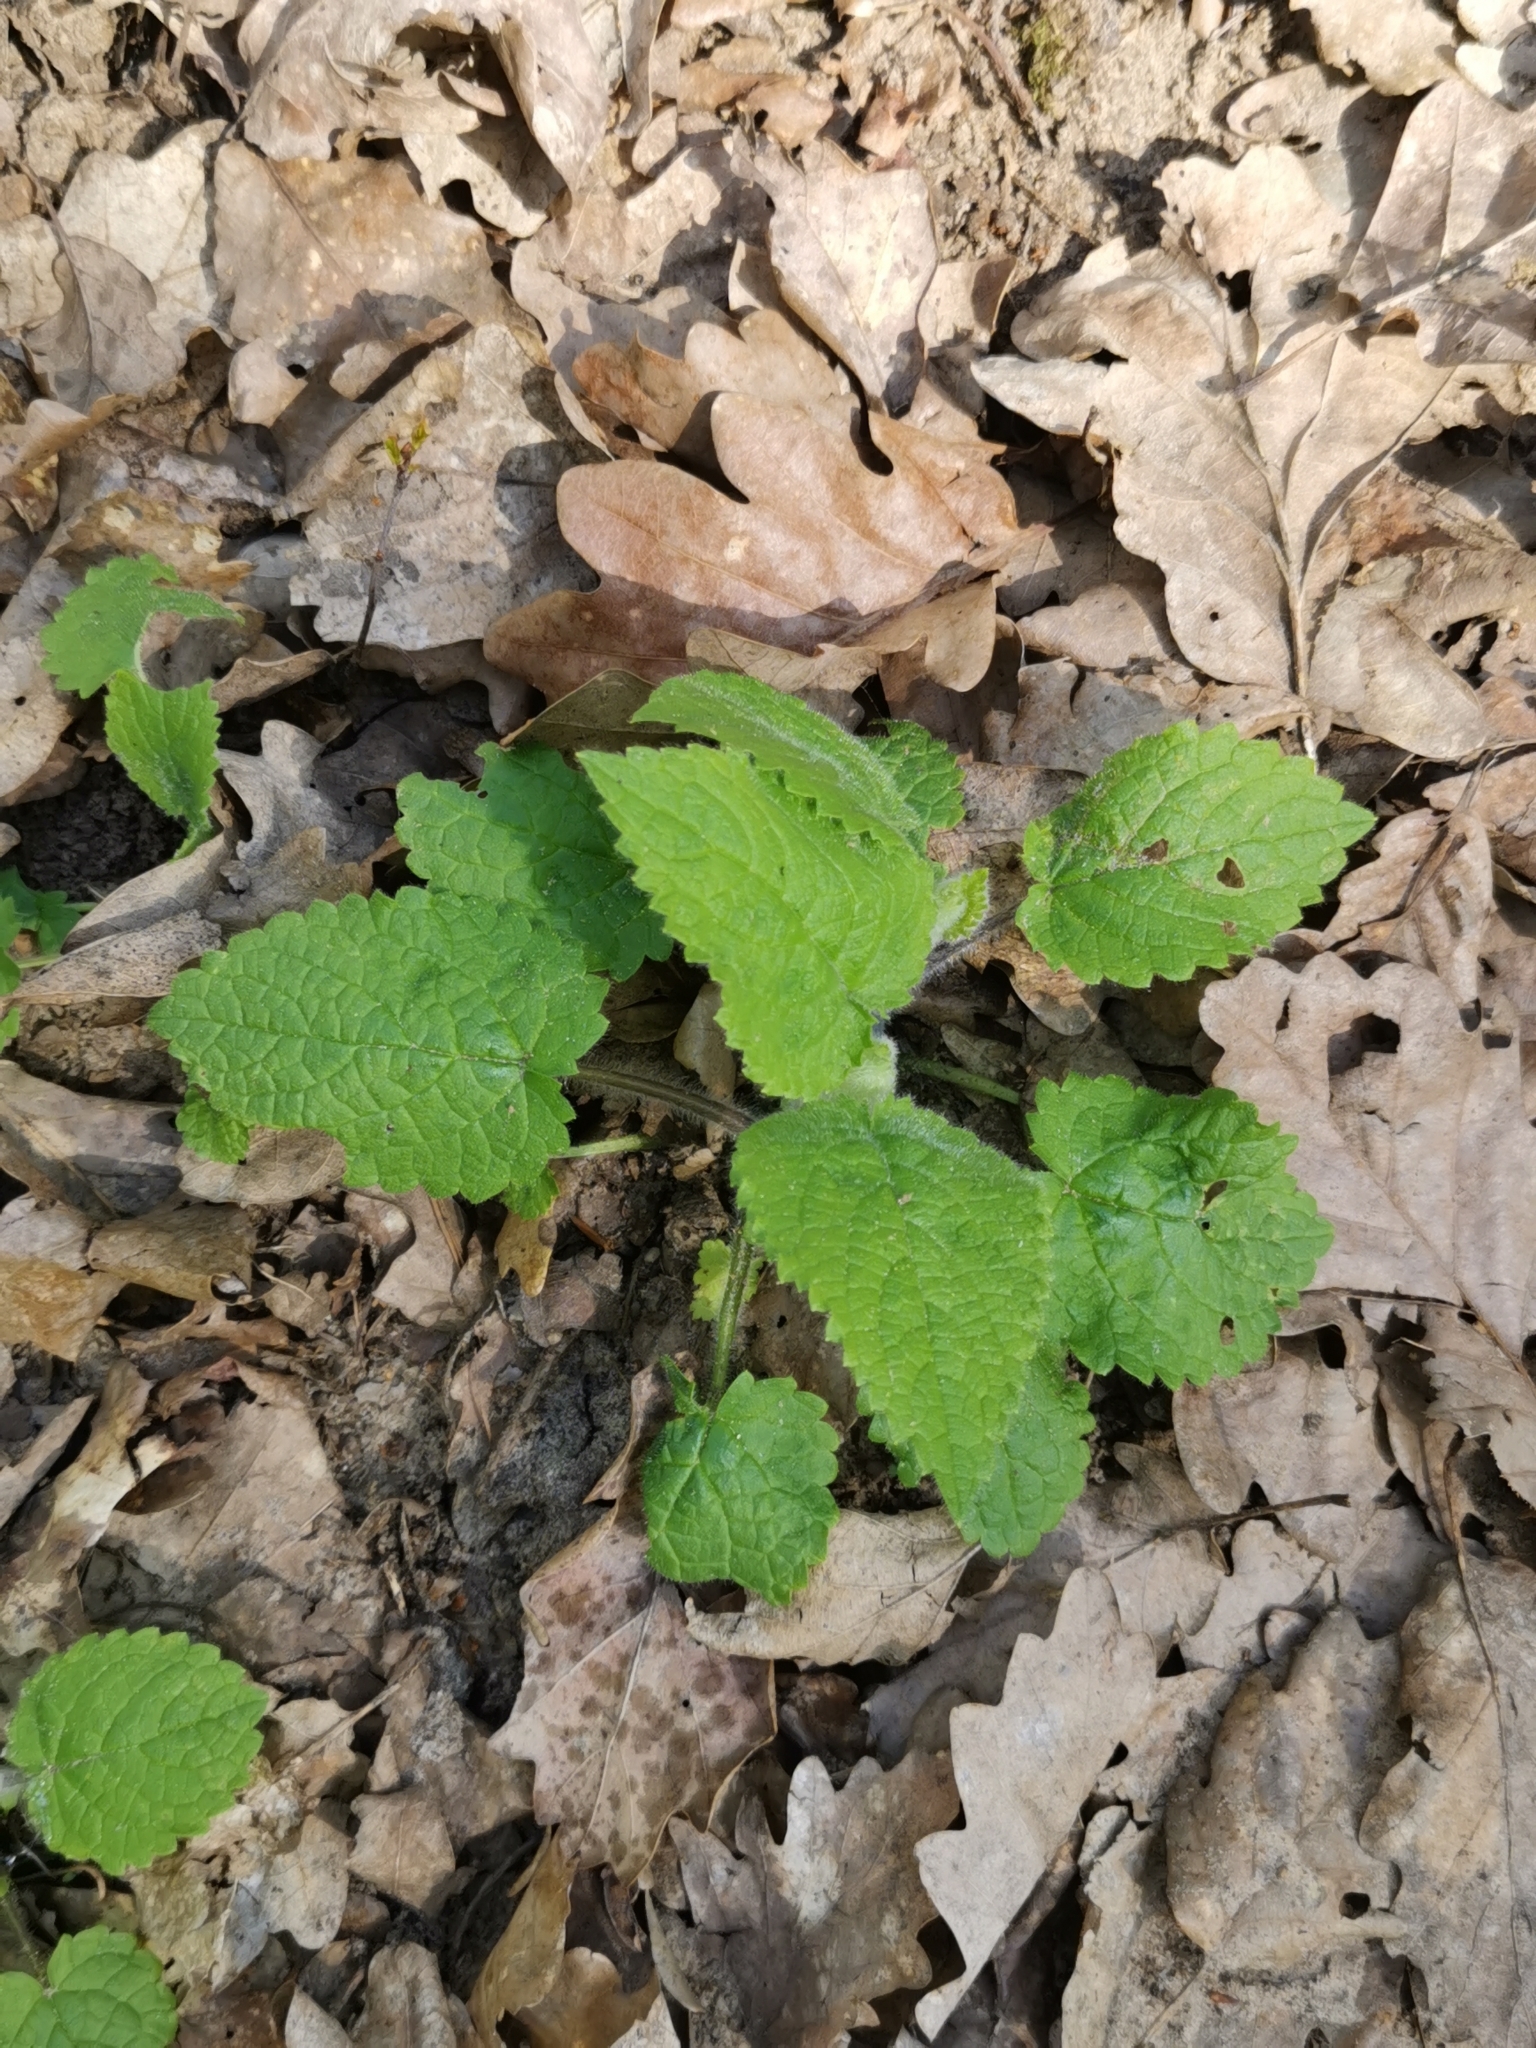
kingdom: Plantae
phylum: Tracheophyta
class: Magnoliopsida
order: Lamiales
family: Lamiaceae
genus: Stachys
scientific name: Stachys sylvatica
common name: Hedge woundwort
